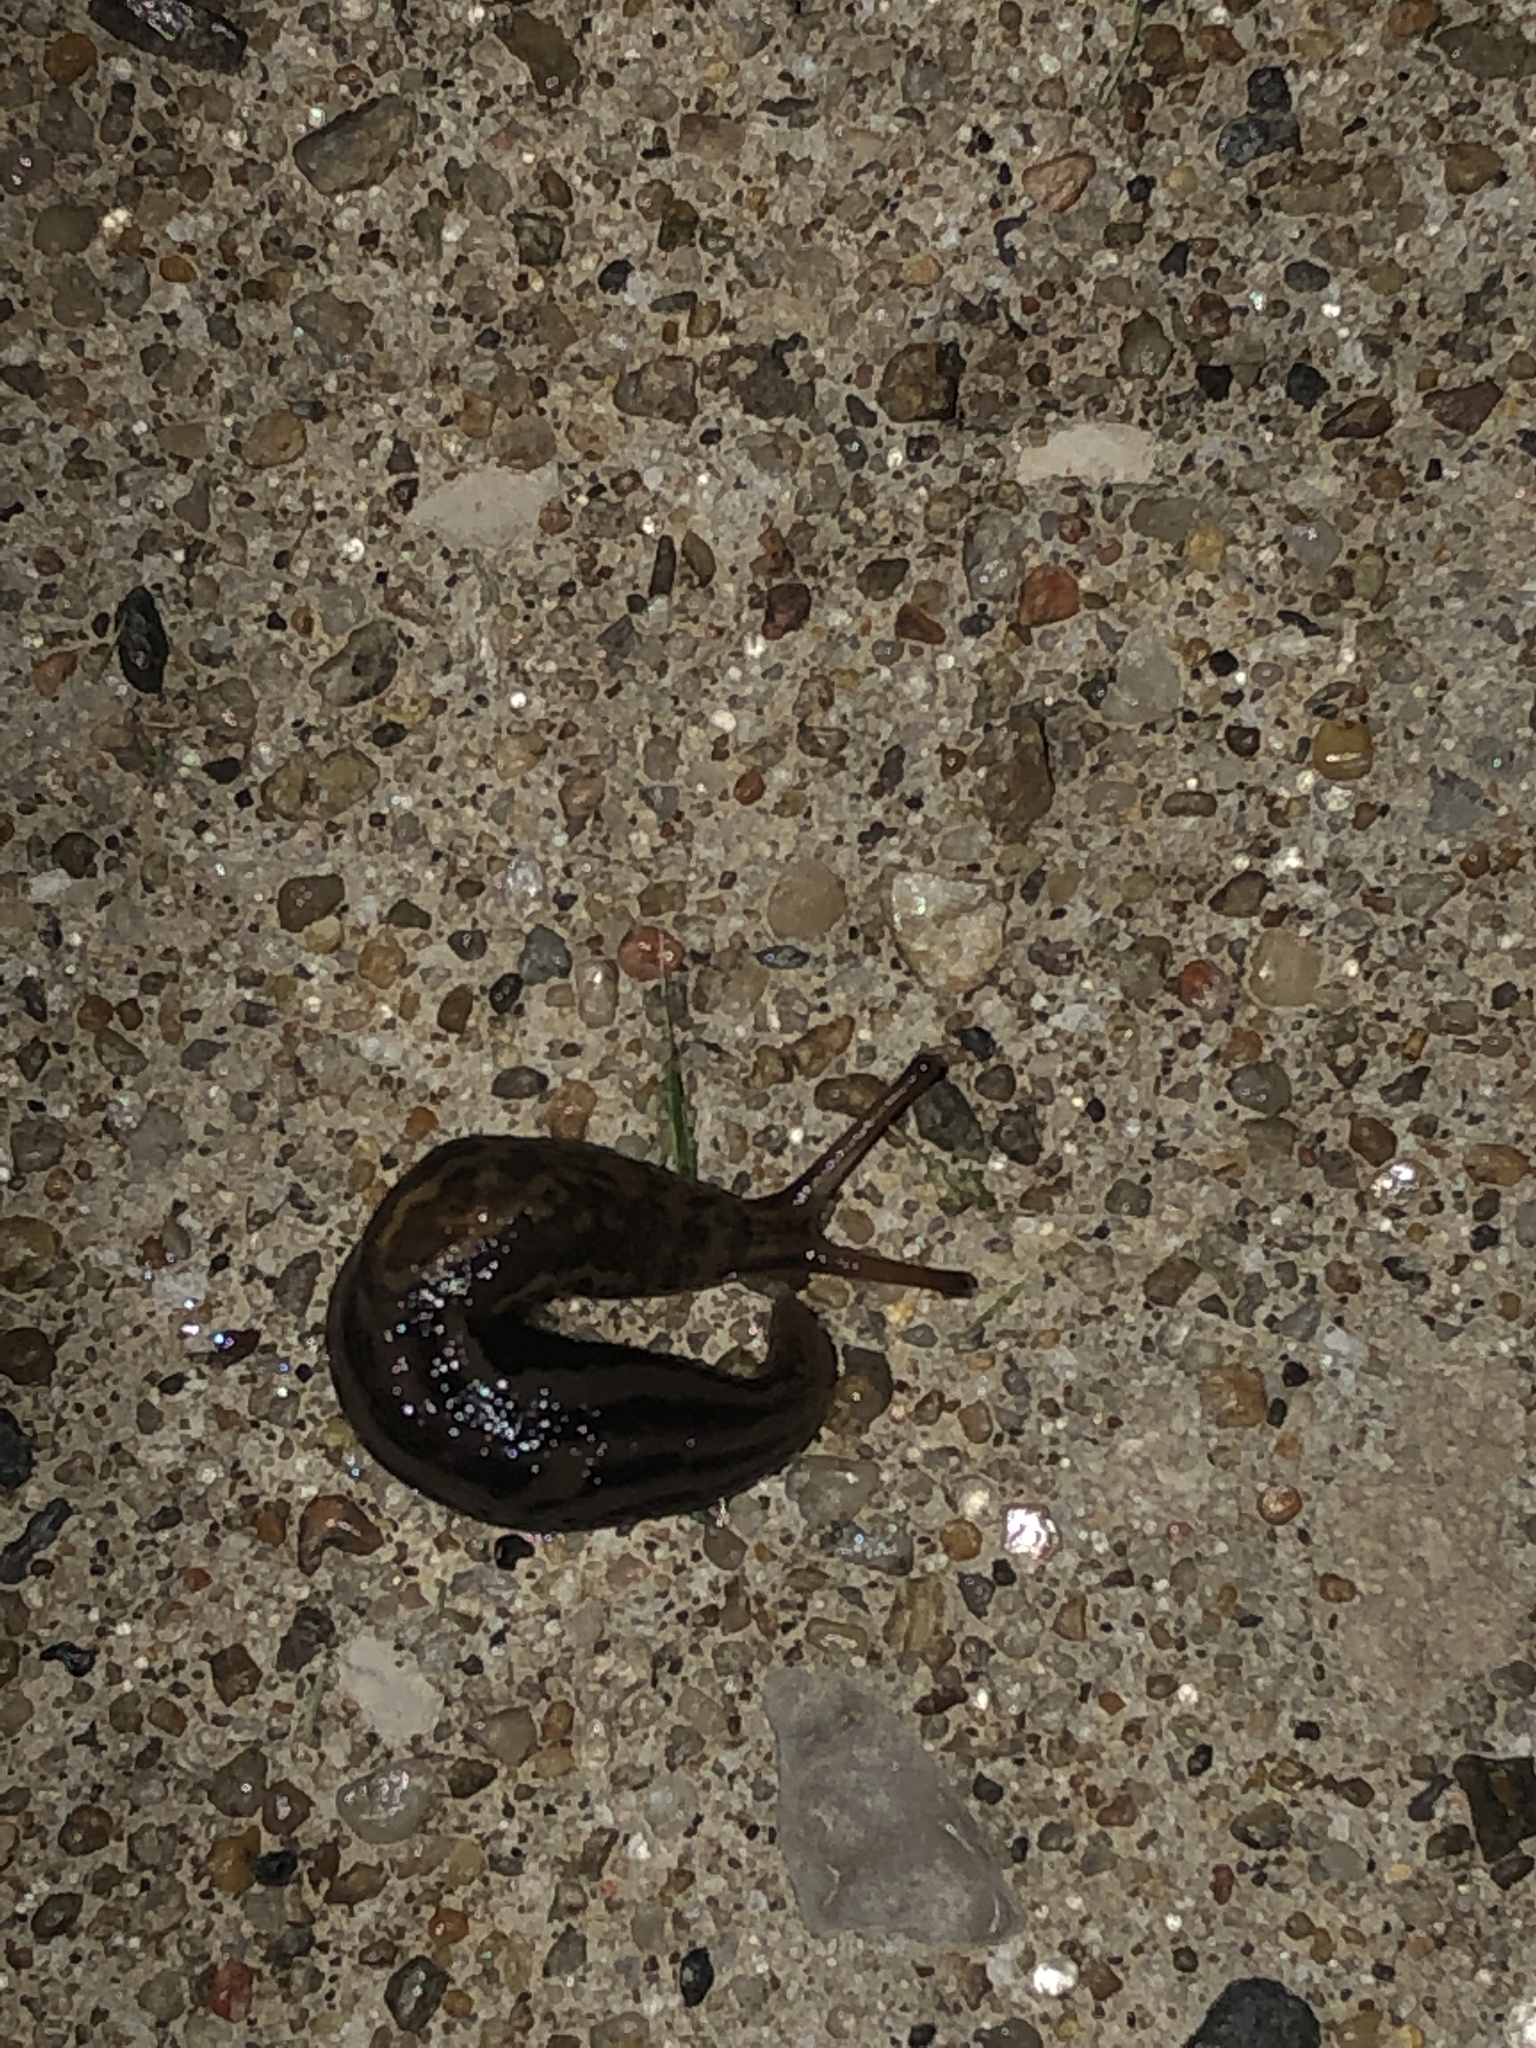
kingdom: Animalia
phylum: Mollusca
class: Gastropoda
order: Stylommatophora
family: Limacidae
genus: Limax
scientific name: Limax maximus
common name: Great grey slug
